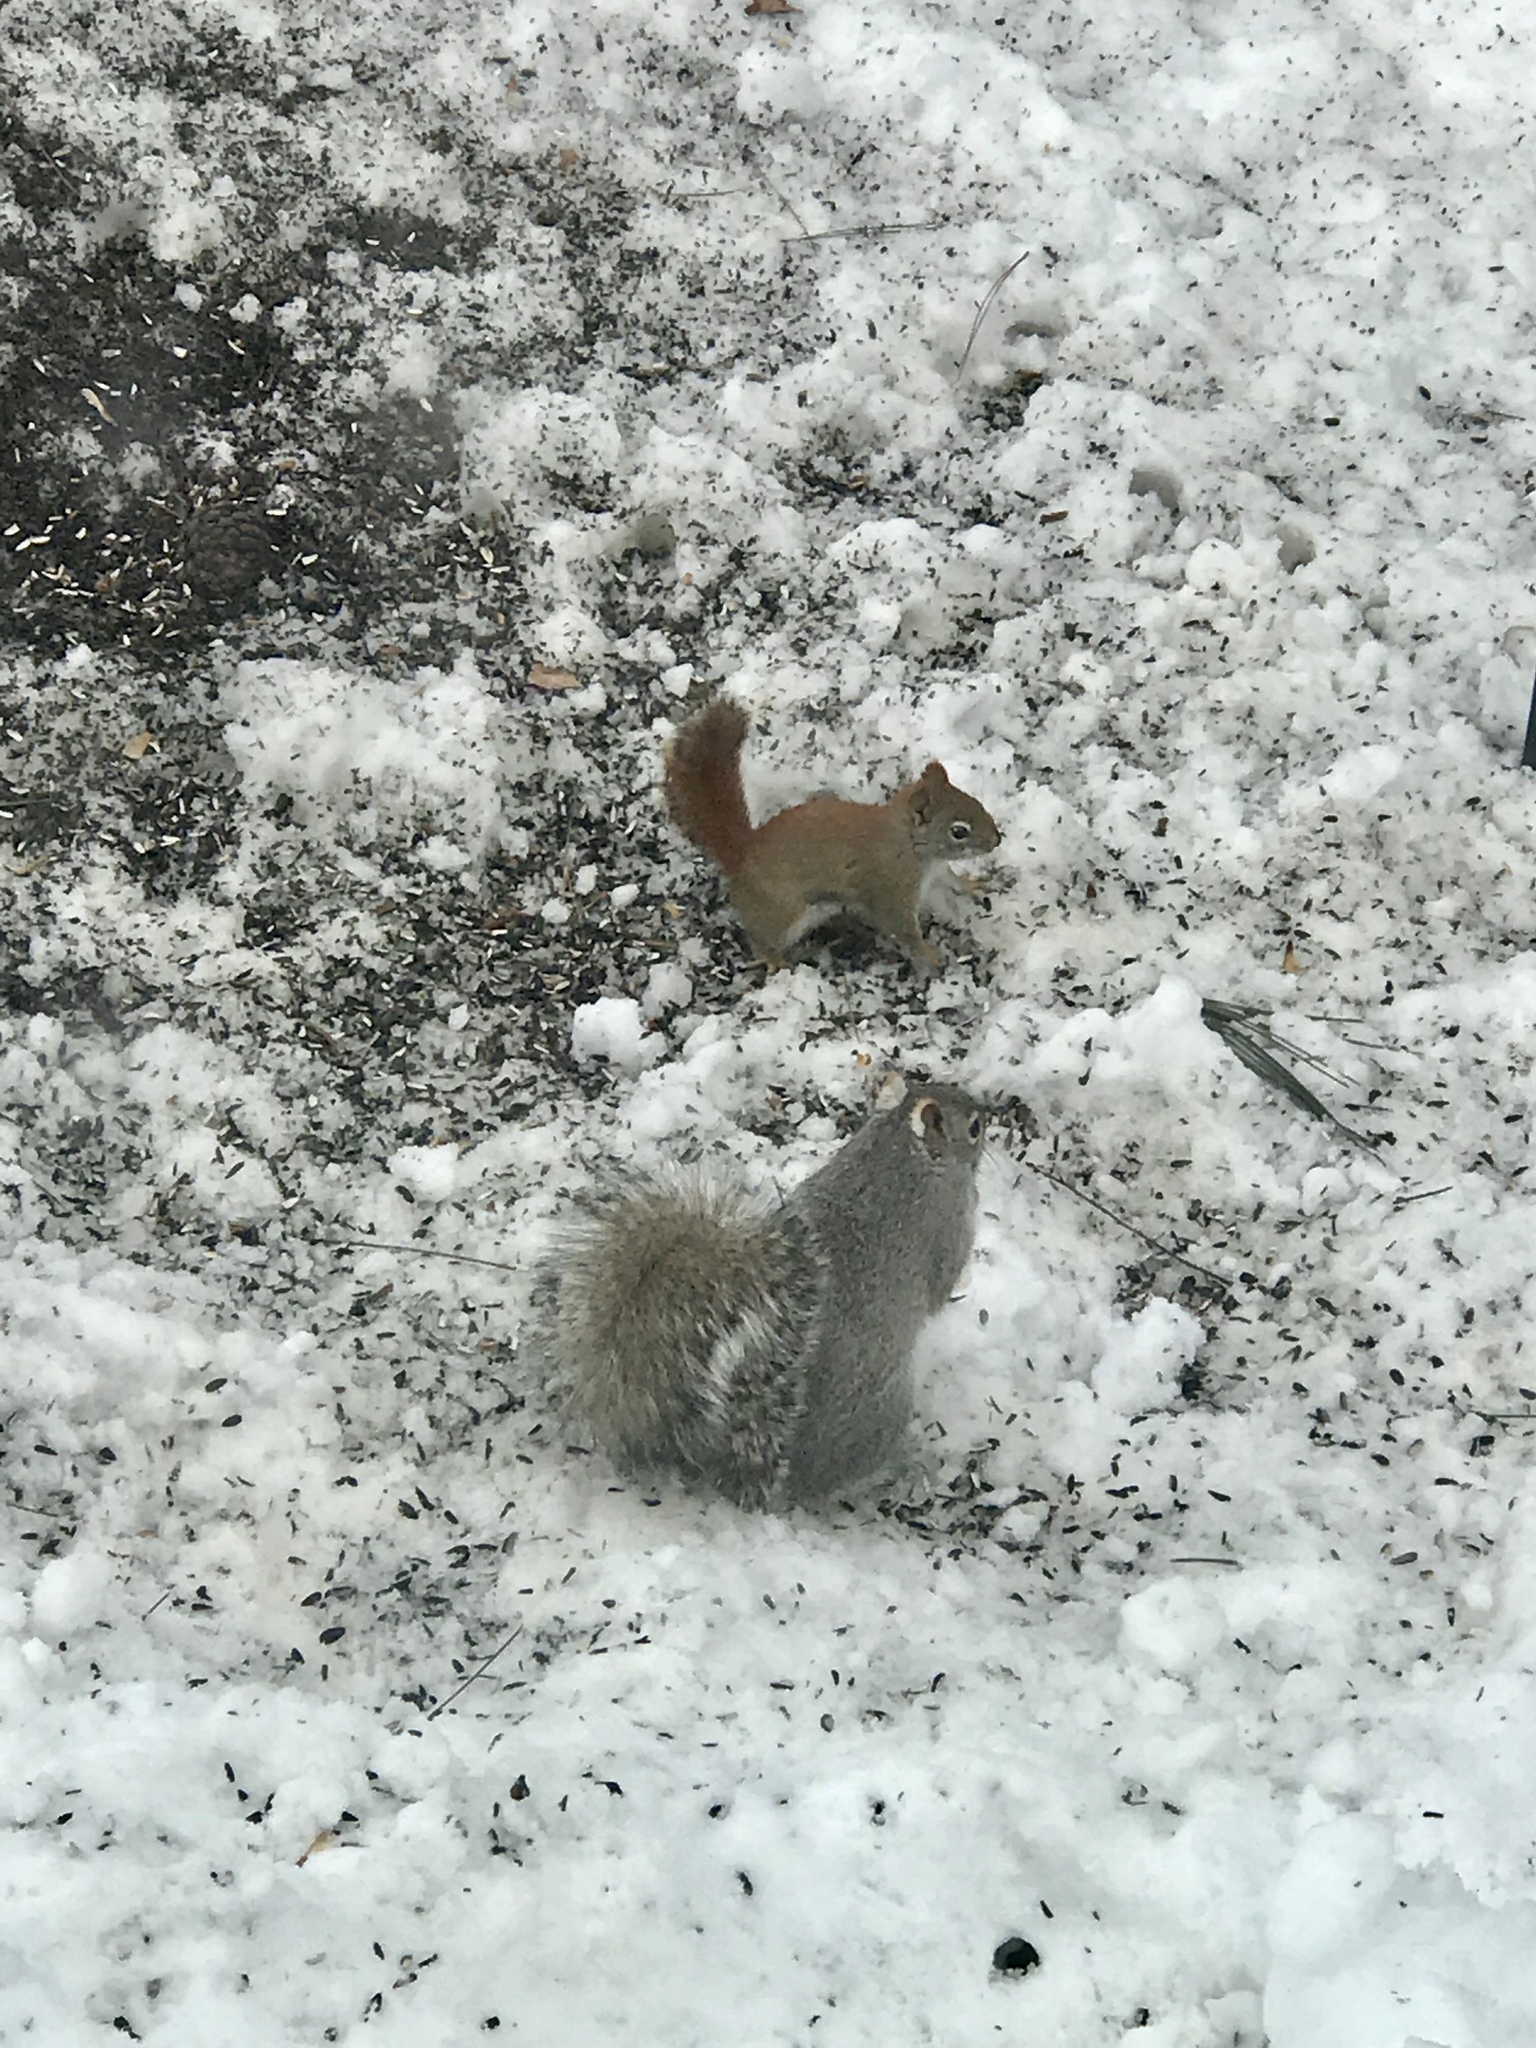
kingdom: Animalia
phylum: Chordata
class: Mammalia
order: Rodentia
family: Sciuridae
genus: Sciurus
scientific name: Sciurus carolinensis
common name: Eastern gray squirrel
